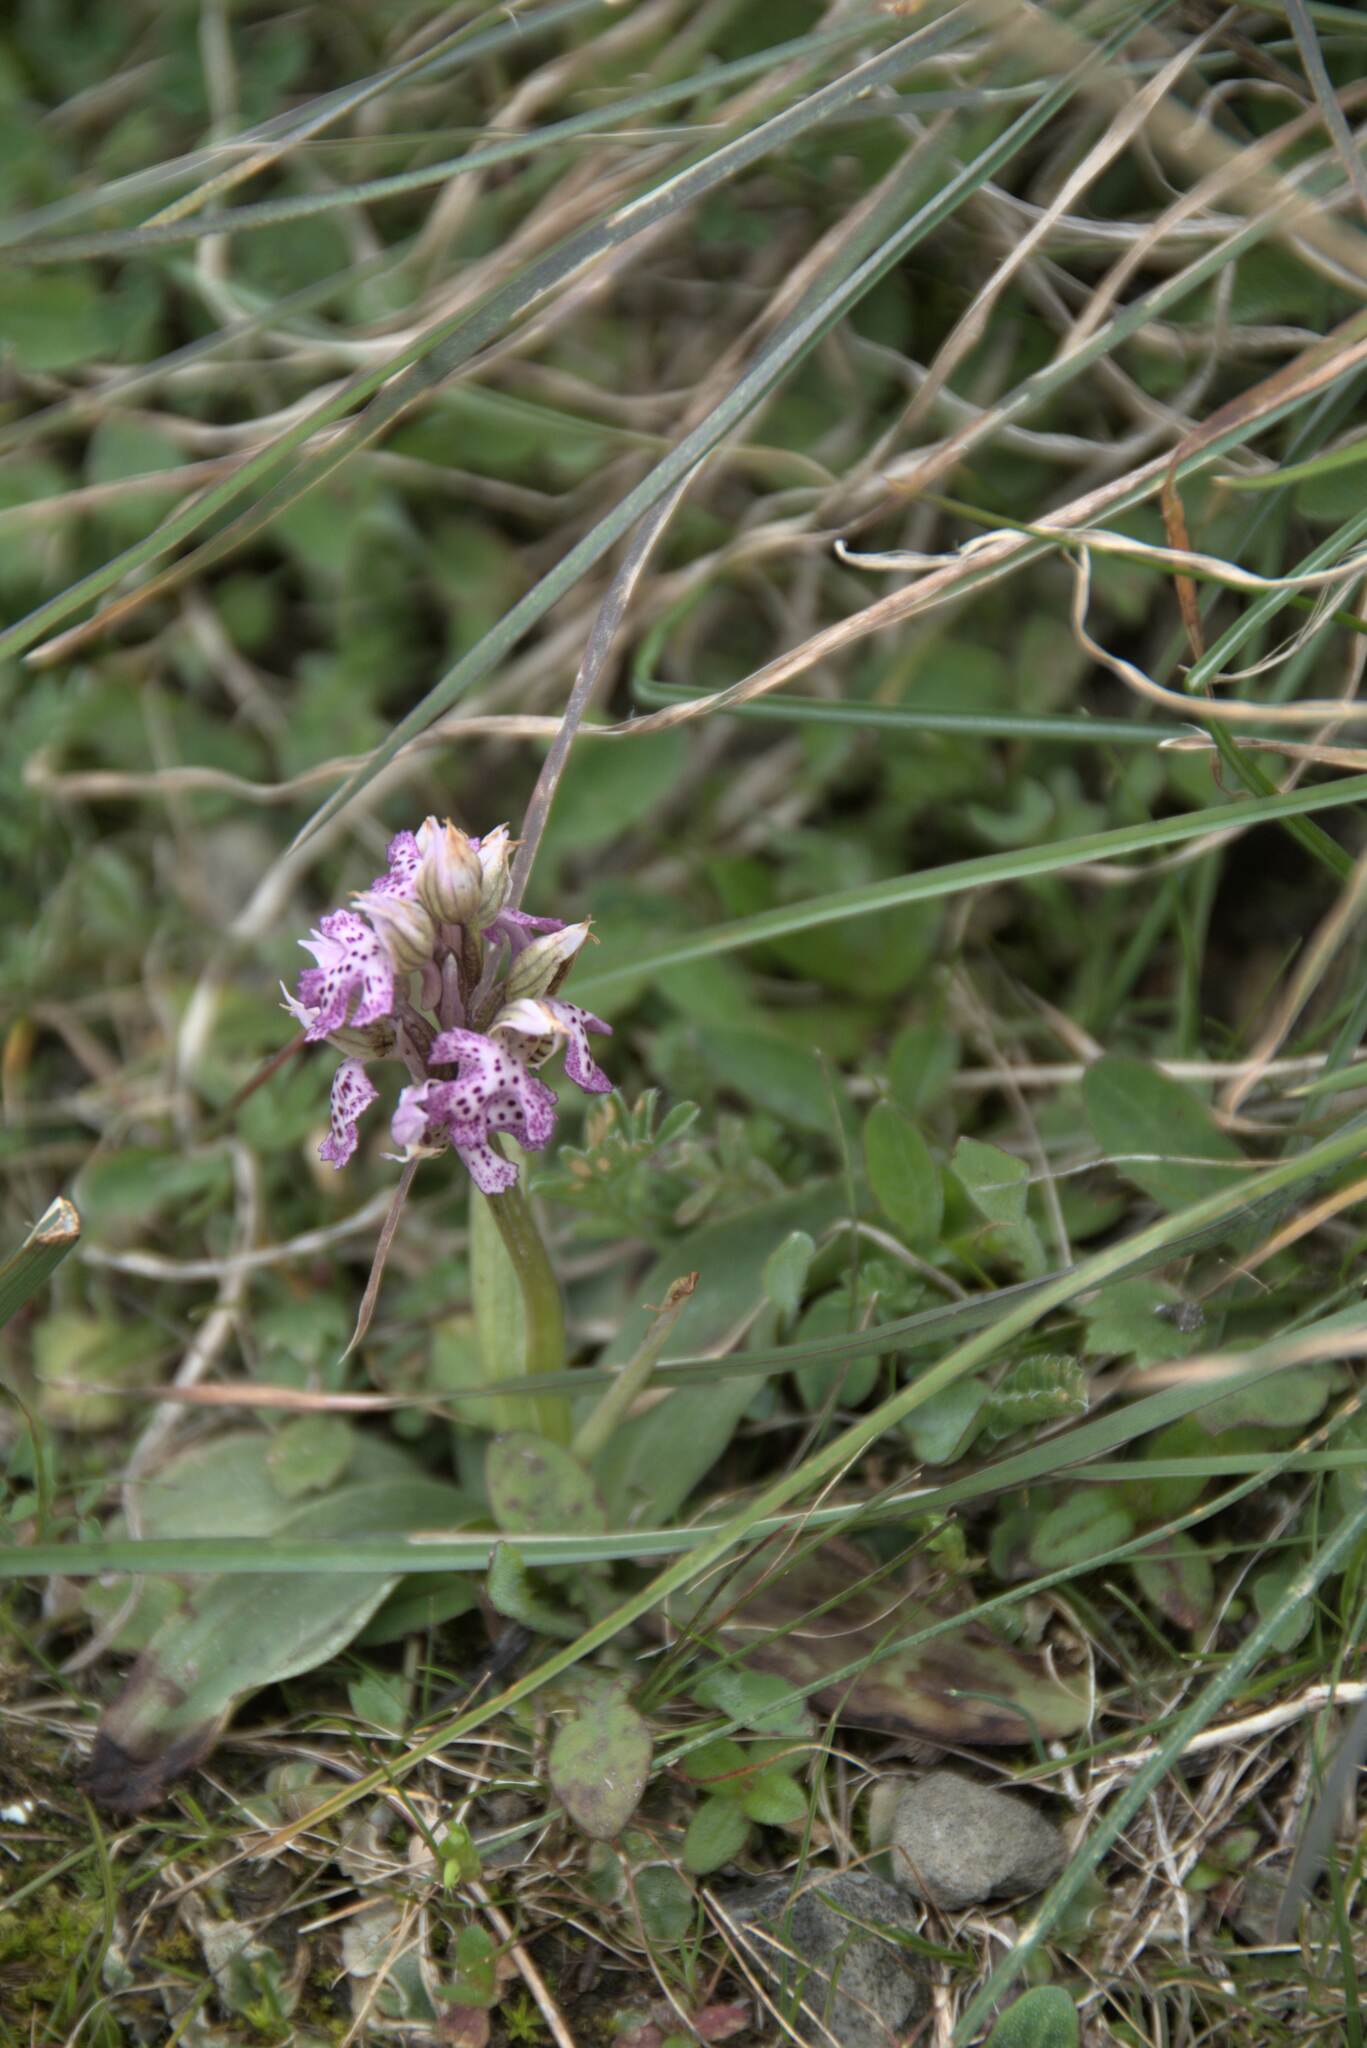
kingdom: Plantae
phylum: Tracheophyta
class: Liliopsida
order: Asparagales
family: Orchidaceae
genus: Neotinea
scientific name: Neotinea lactea
